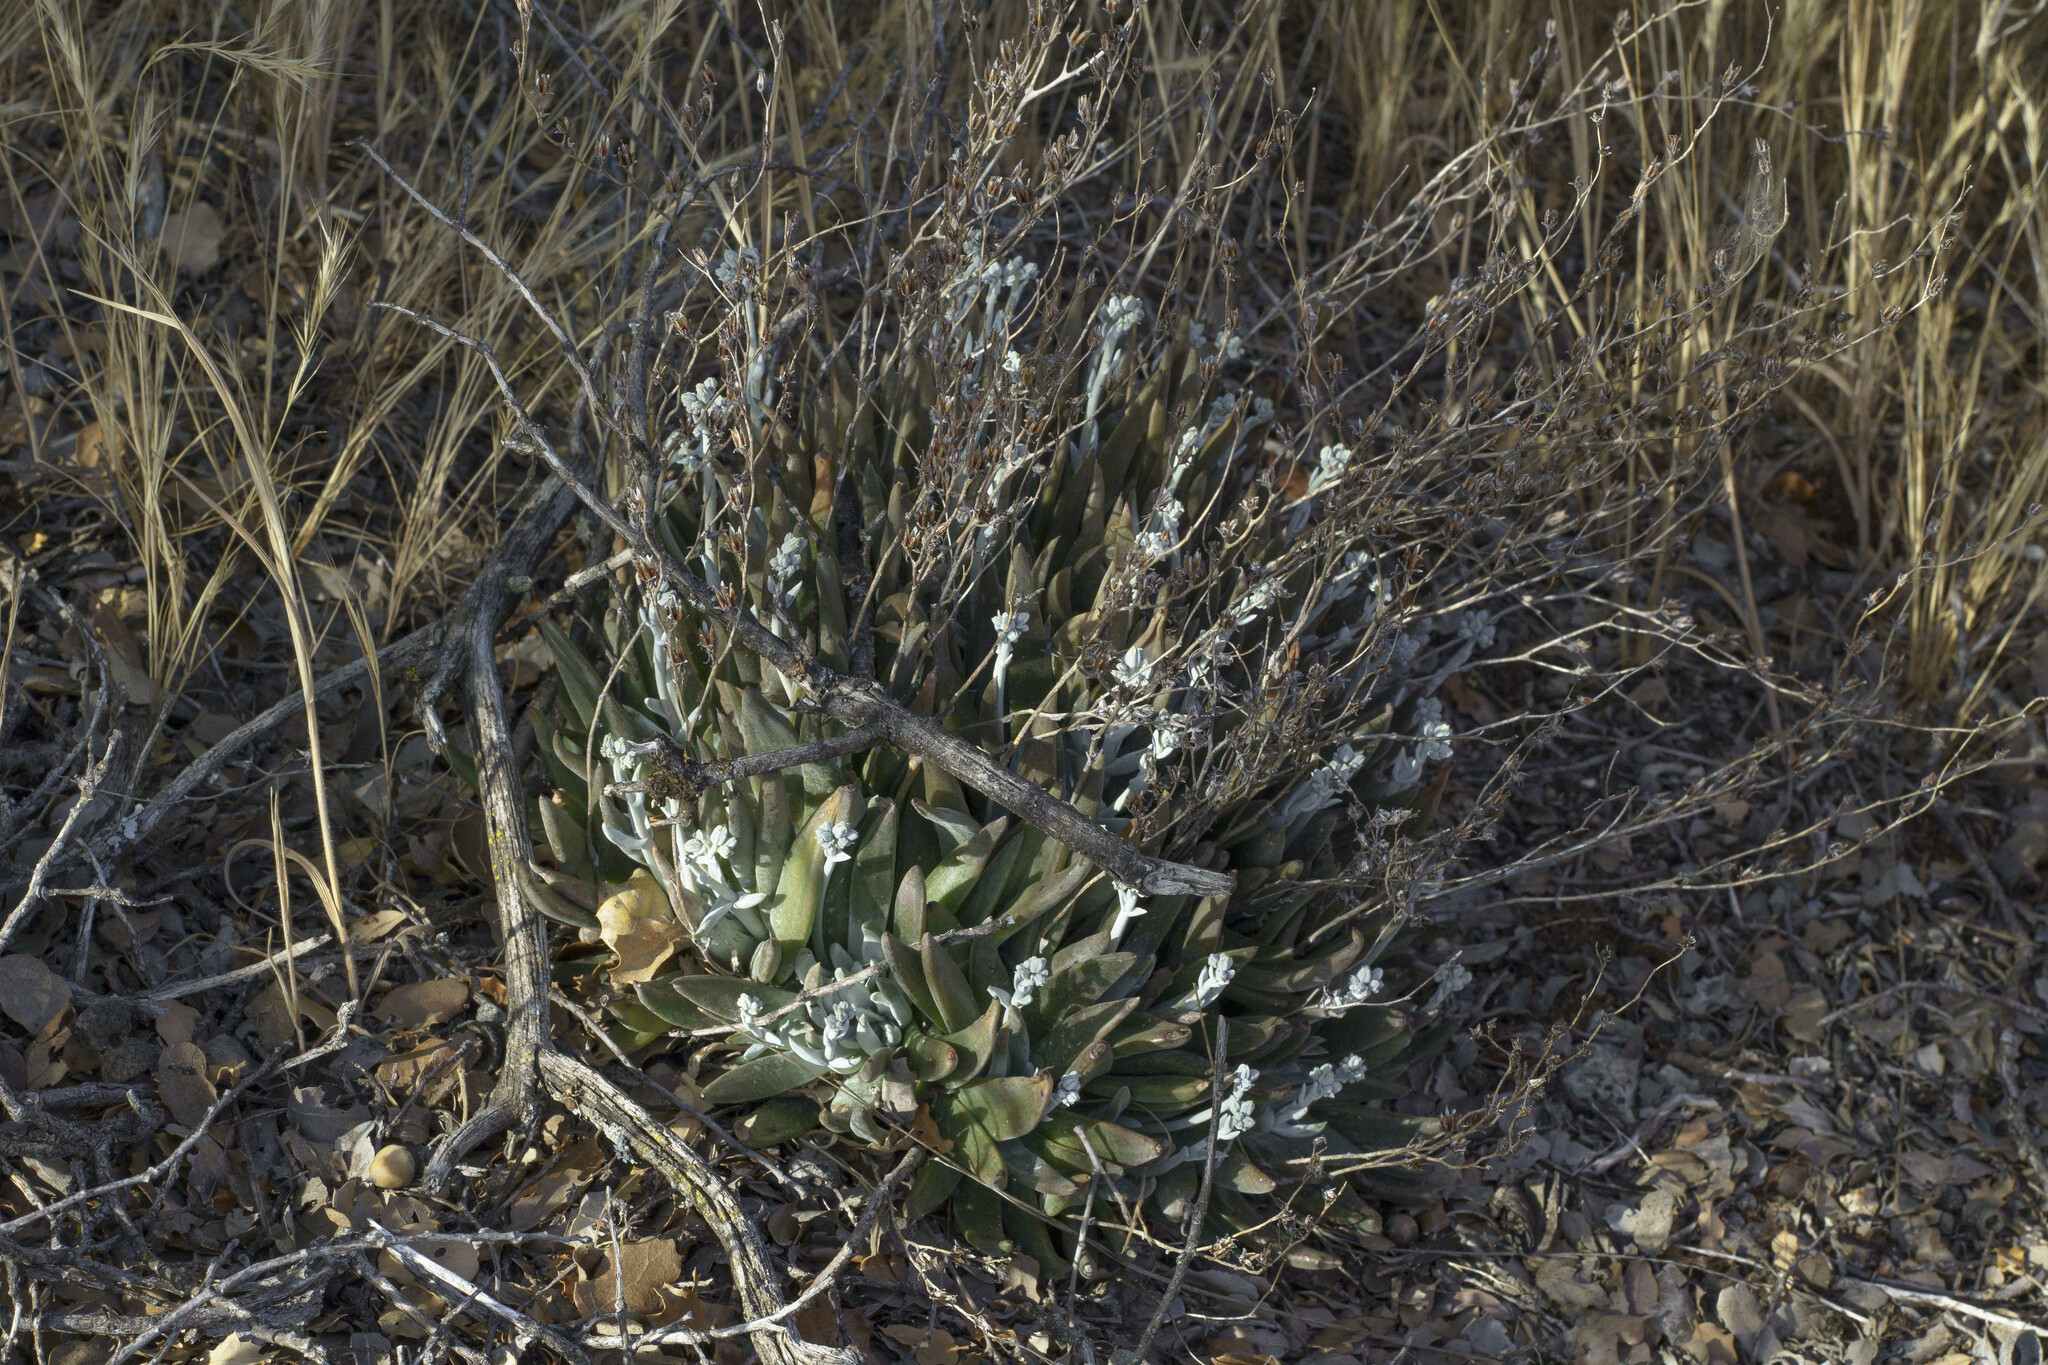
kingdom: Plantae
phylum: Tracheophyta
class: Magnoliopsida
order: Saxifragales
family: Crassulaceae
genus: Dudleya
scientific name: Dudleya abramsii
